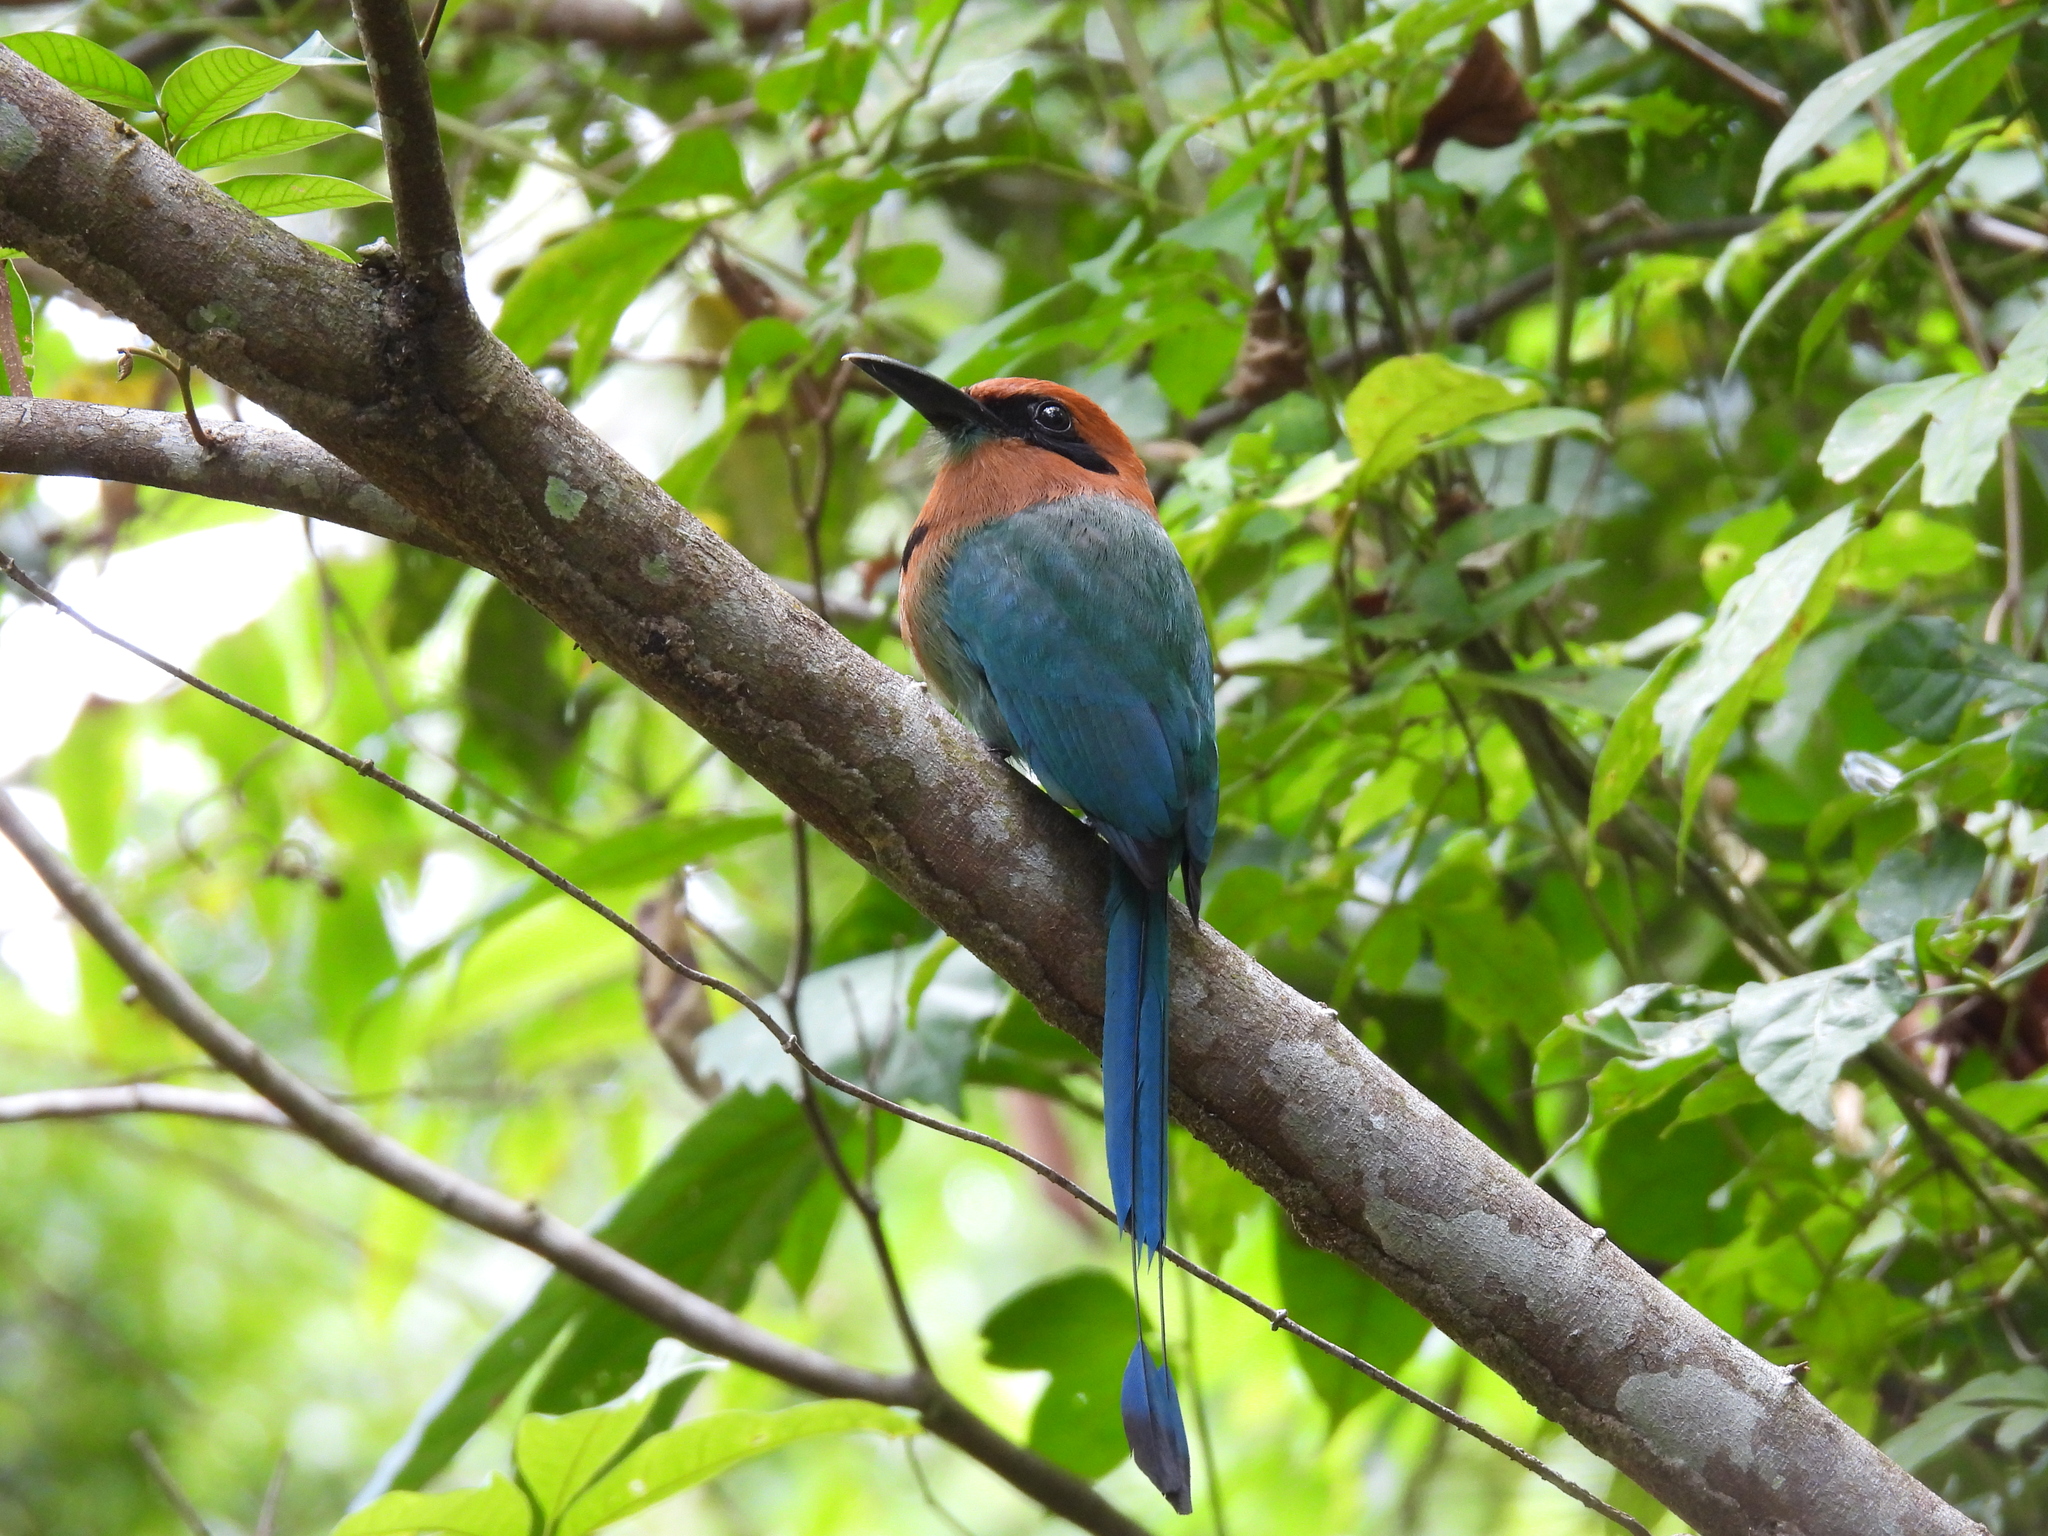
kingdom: Animalia
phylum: Chordata
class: Aves
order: Coraciiformes
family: Momotidae
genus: Electron
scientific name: Electron platyrhynchum
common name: Broad-billed motmot
